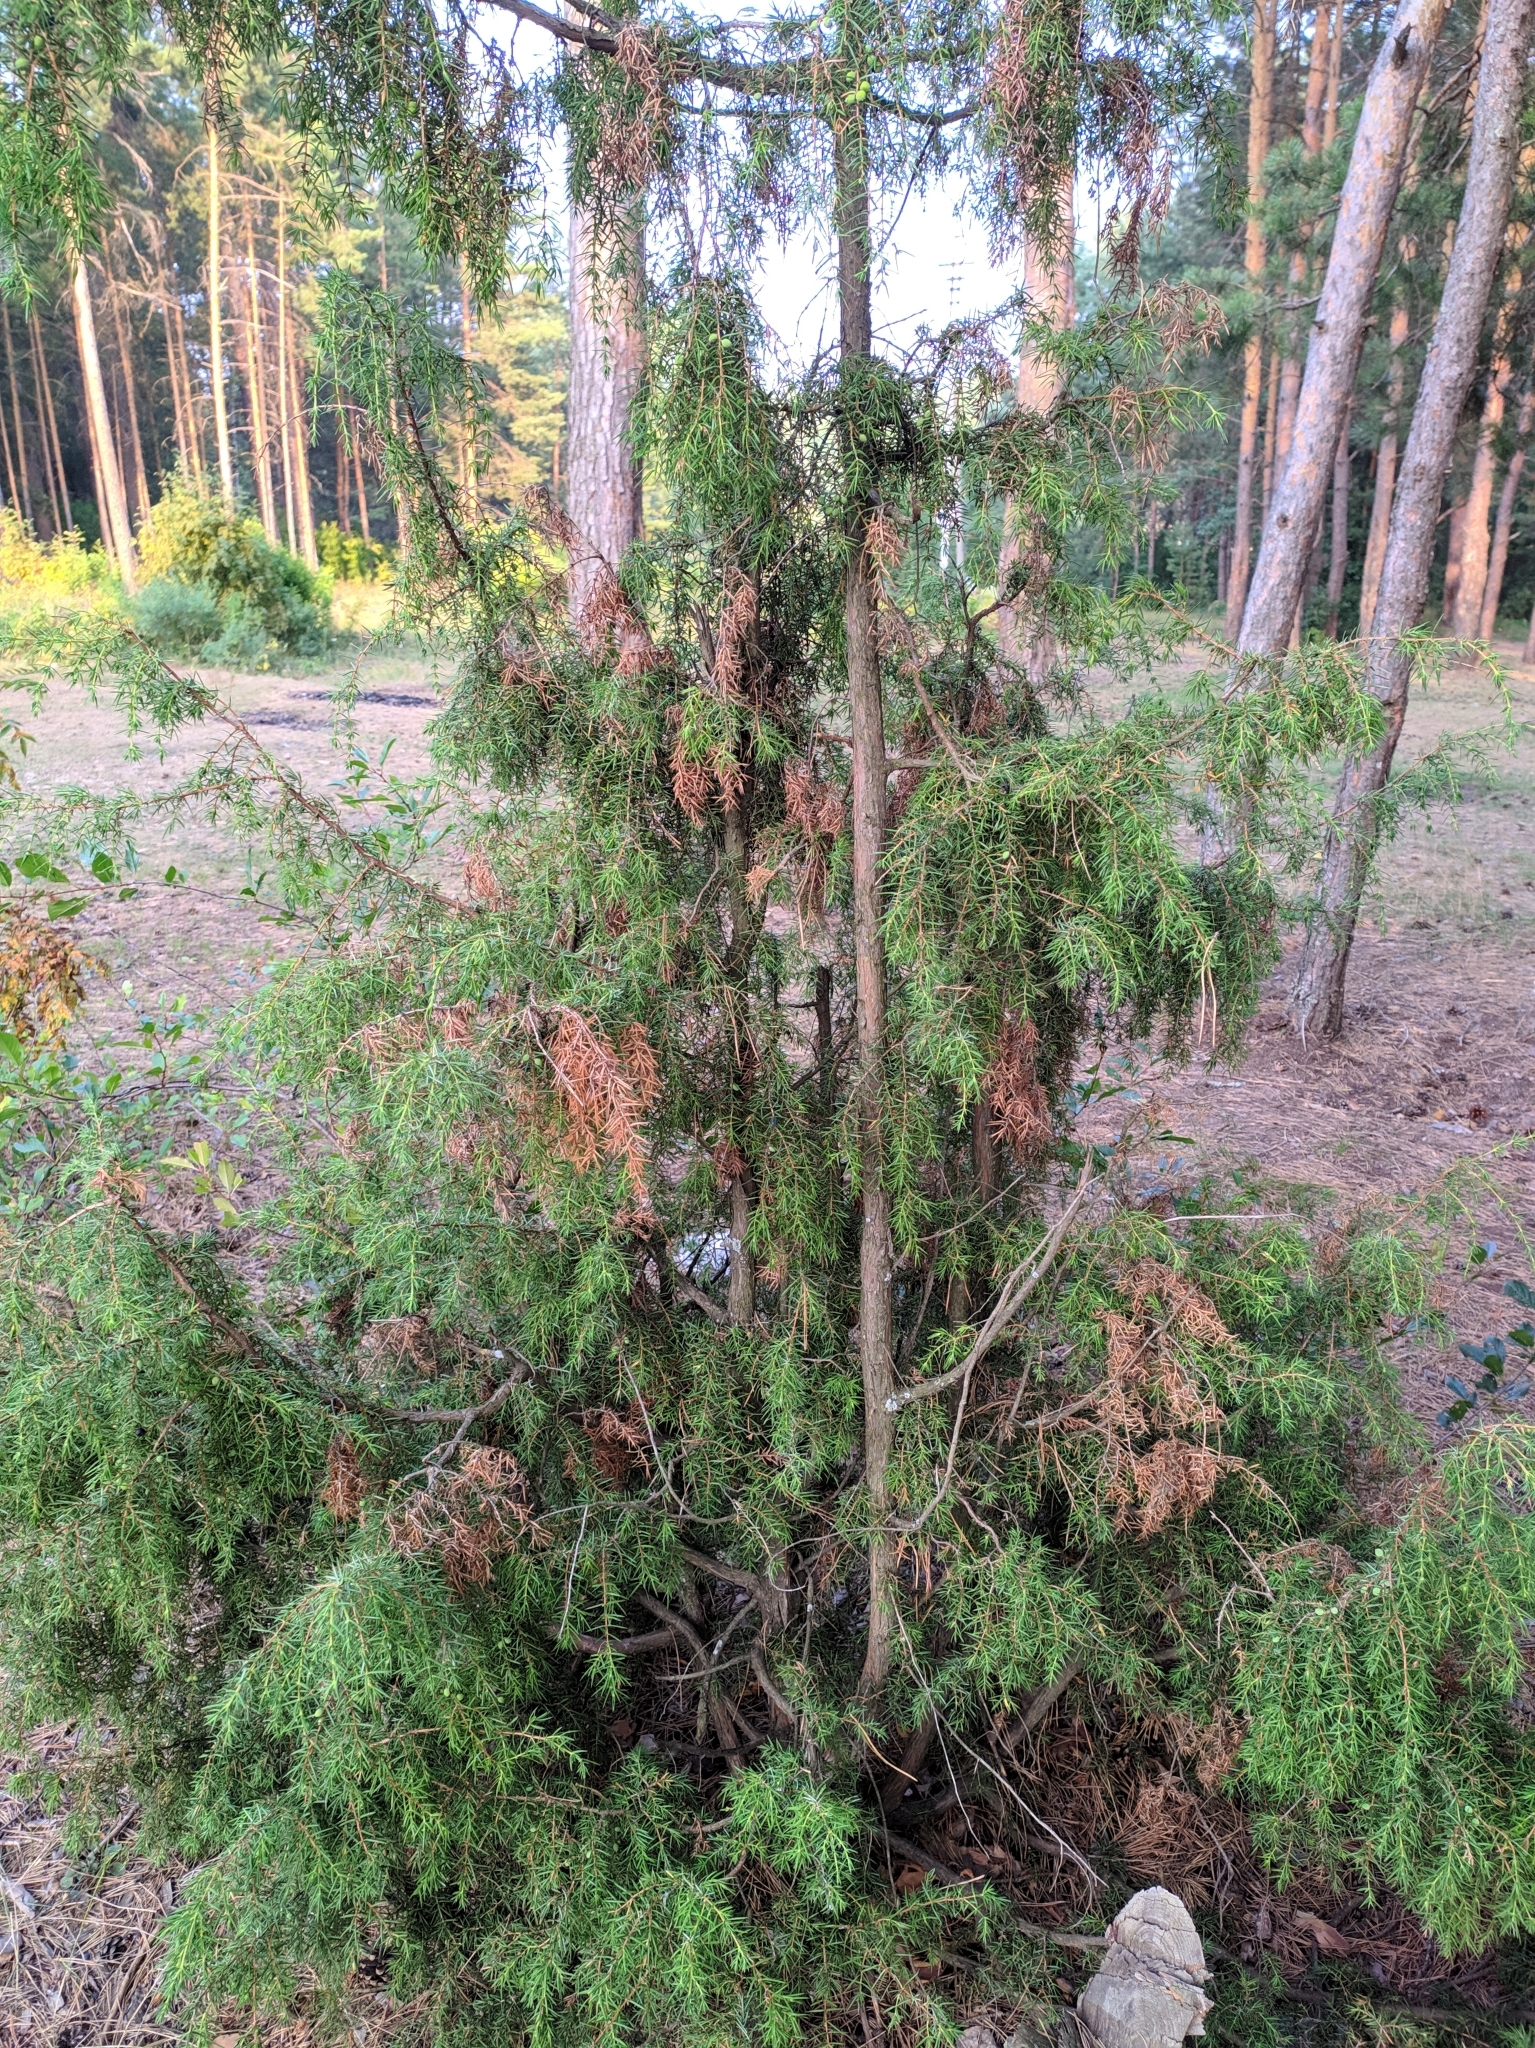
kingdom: Plantae
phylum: Tracheophyta
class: Pinopsida
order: Pinales
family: Cupressaceae
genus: Juniperus
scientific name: Juniperus communis
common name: Common juniper
